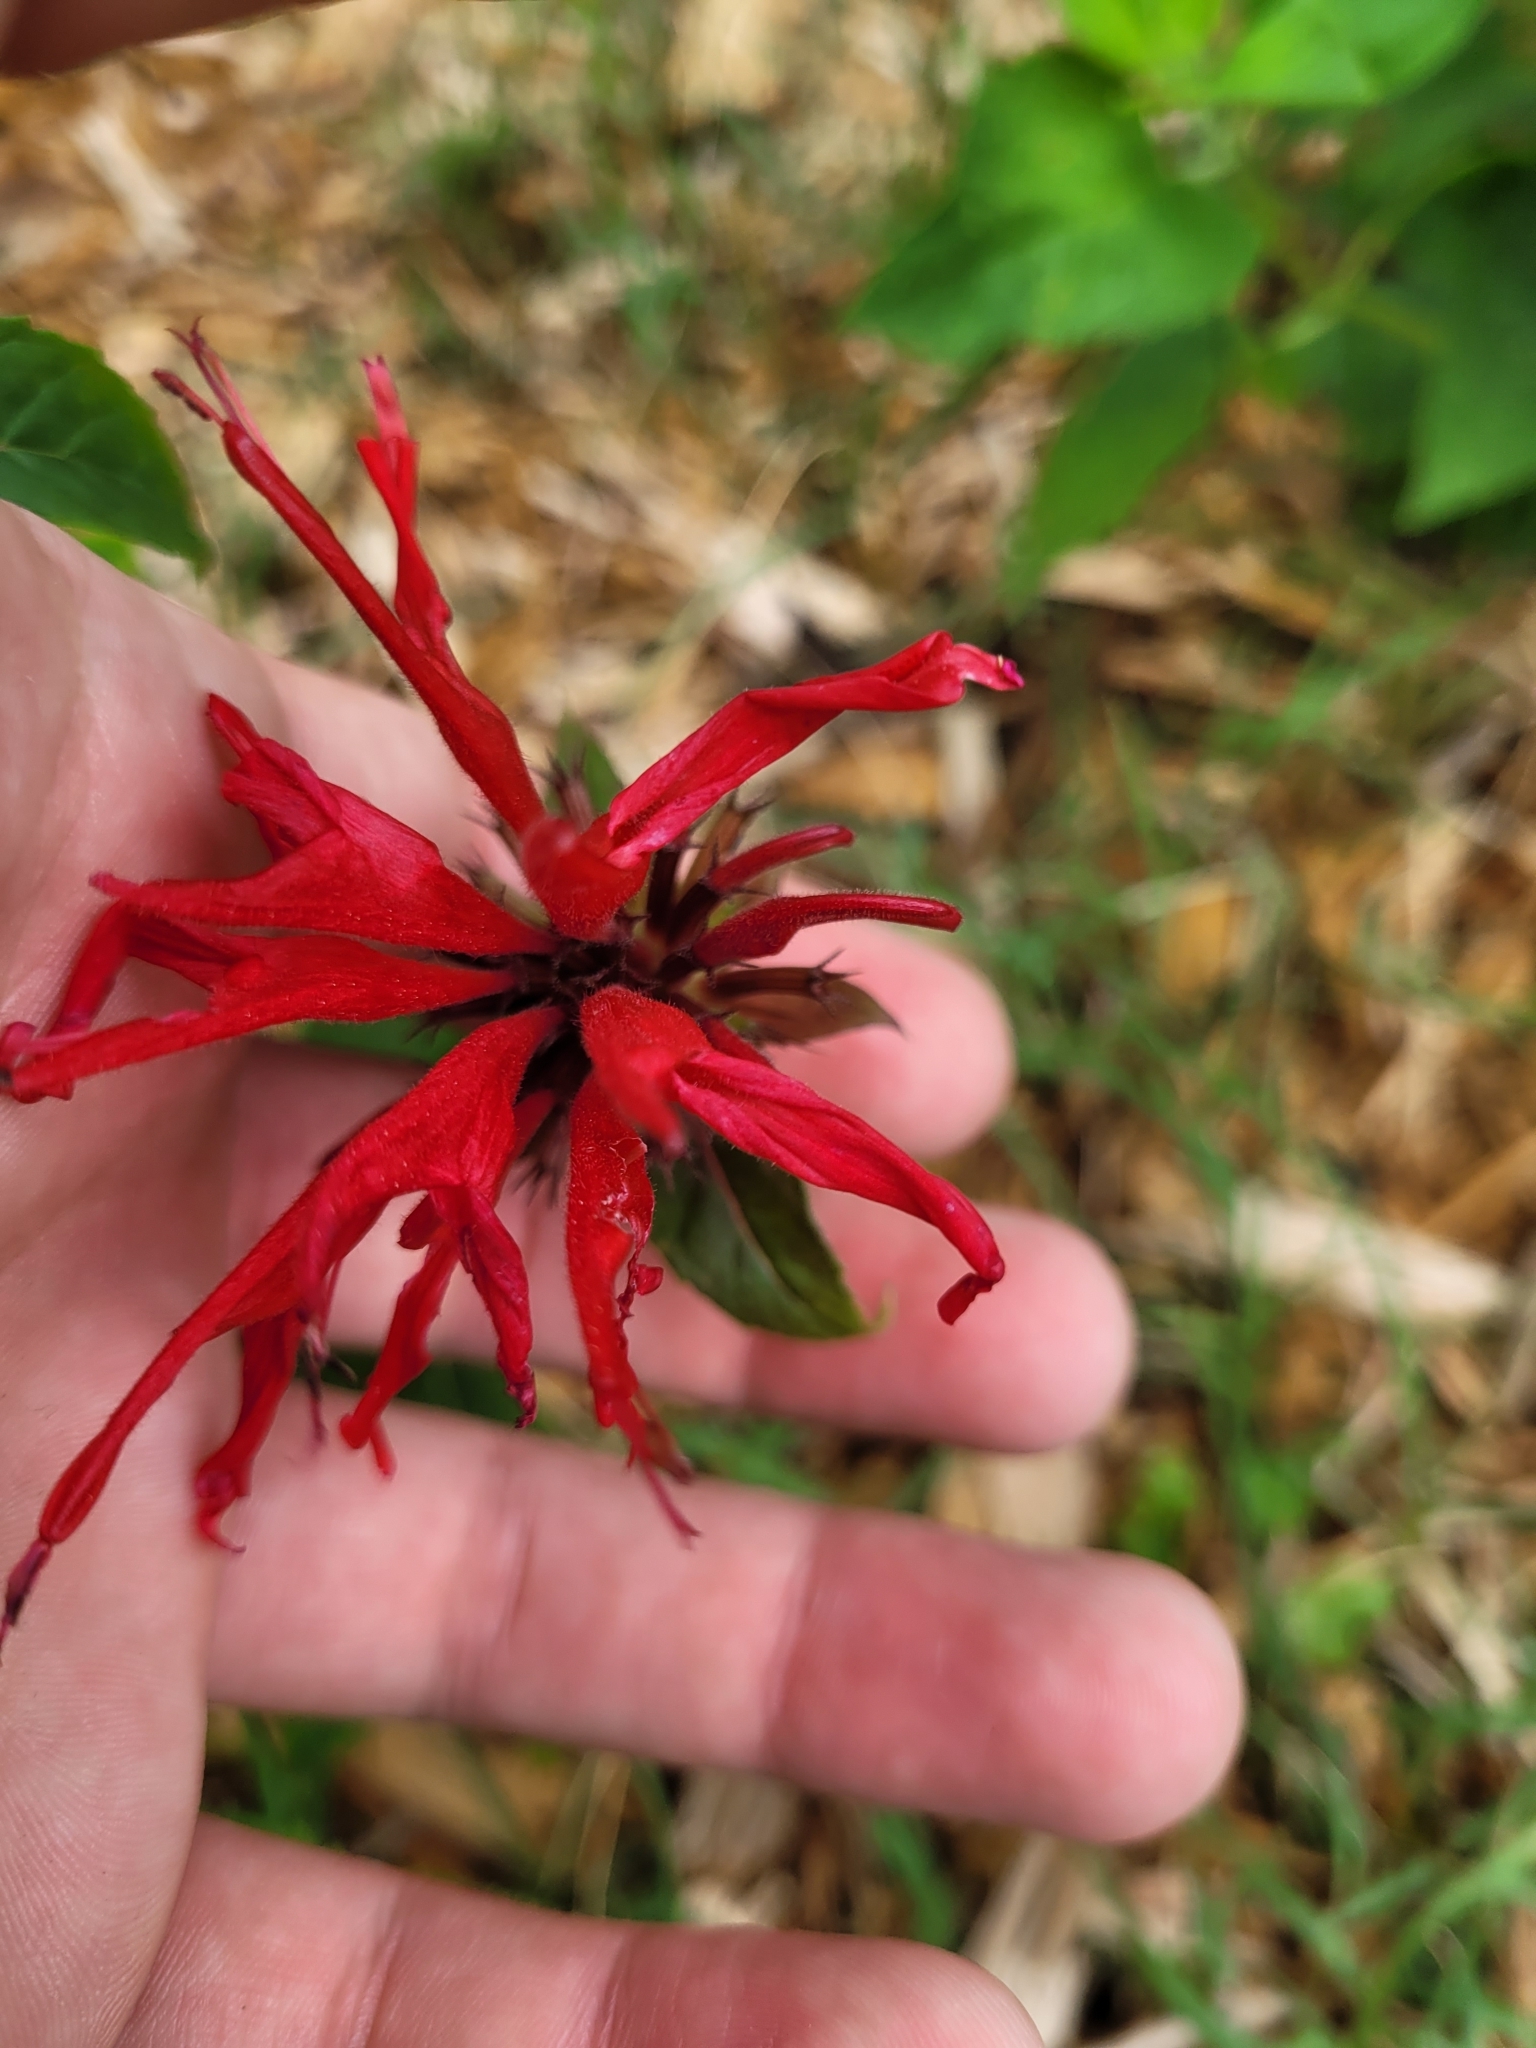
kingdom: Plantae
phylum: Tracheophyta
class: Magnoliopsida
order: Lamiales
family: Lamiaceae
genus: Monarda
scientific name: Monarda didyma
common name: Beebalm
